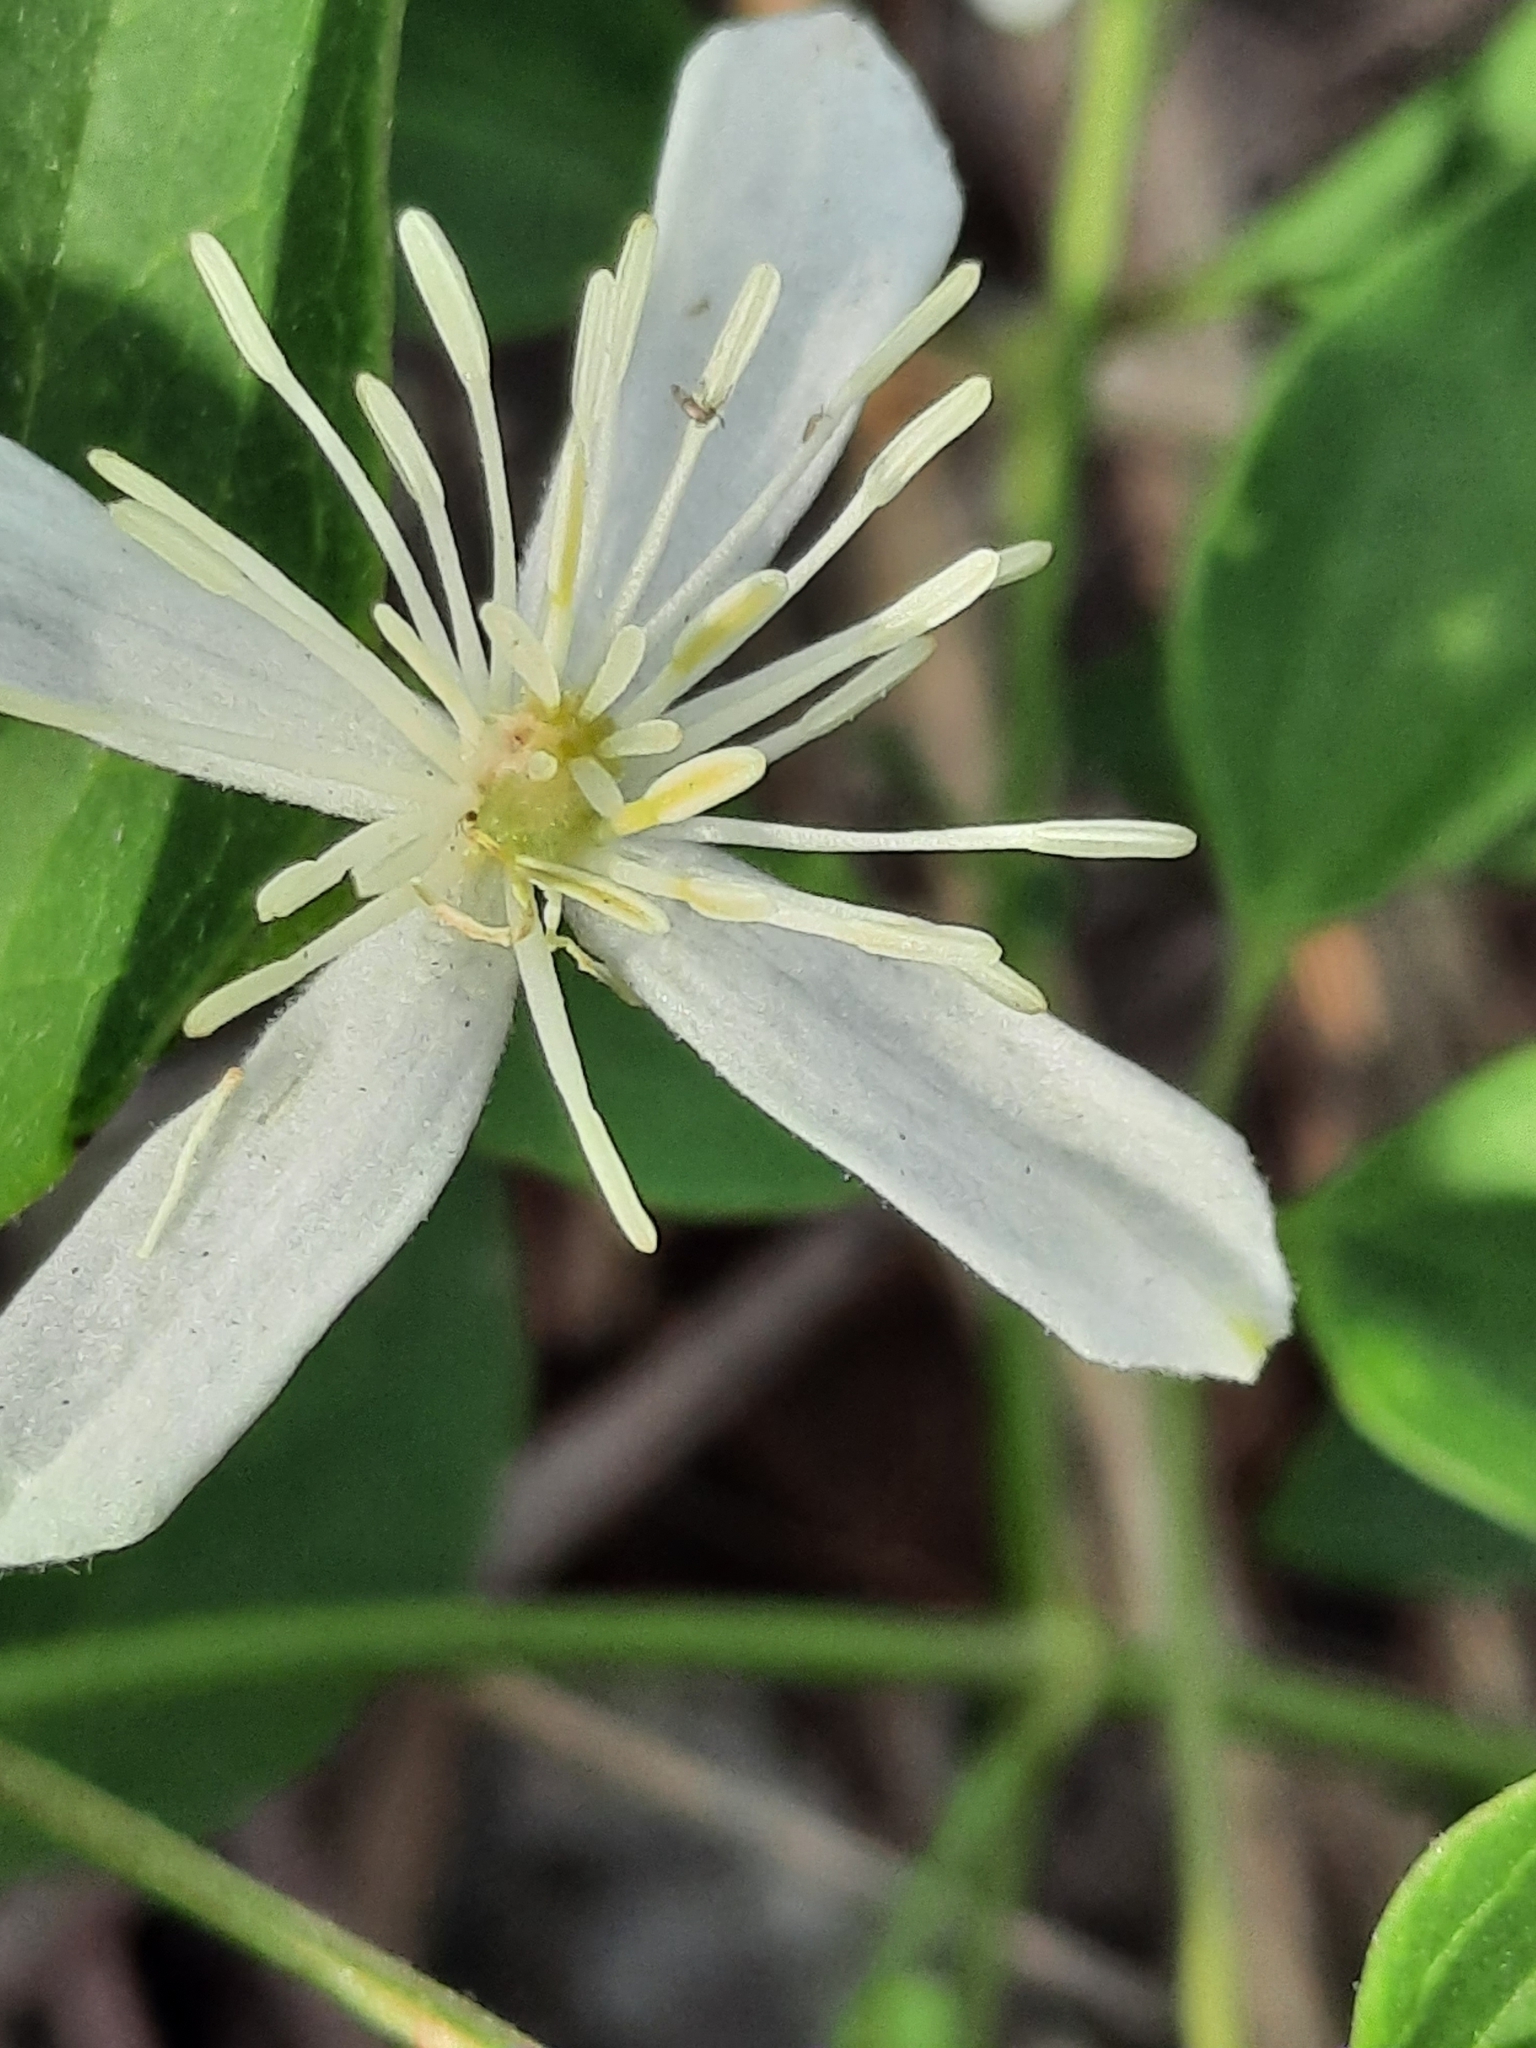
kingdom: Plantae
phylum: Tracheophyta
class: Magnoliopsida
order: Ranunculales
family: Ranunculaceae
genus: Clematis
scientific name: Clematis terniflora
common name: Sweet autumn clematis
